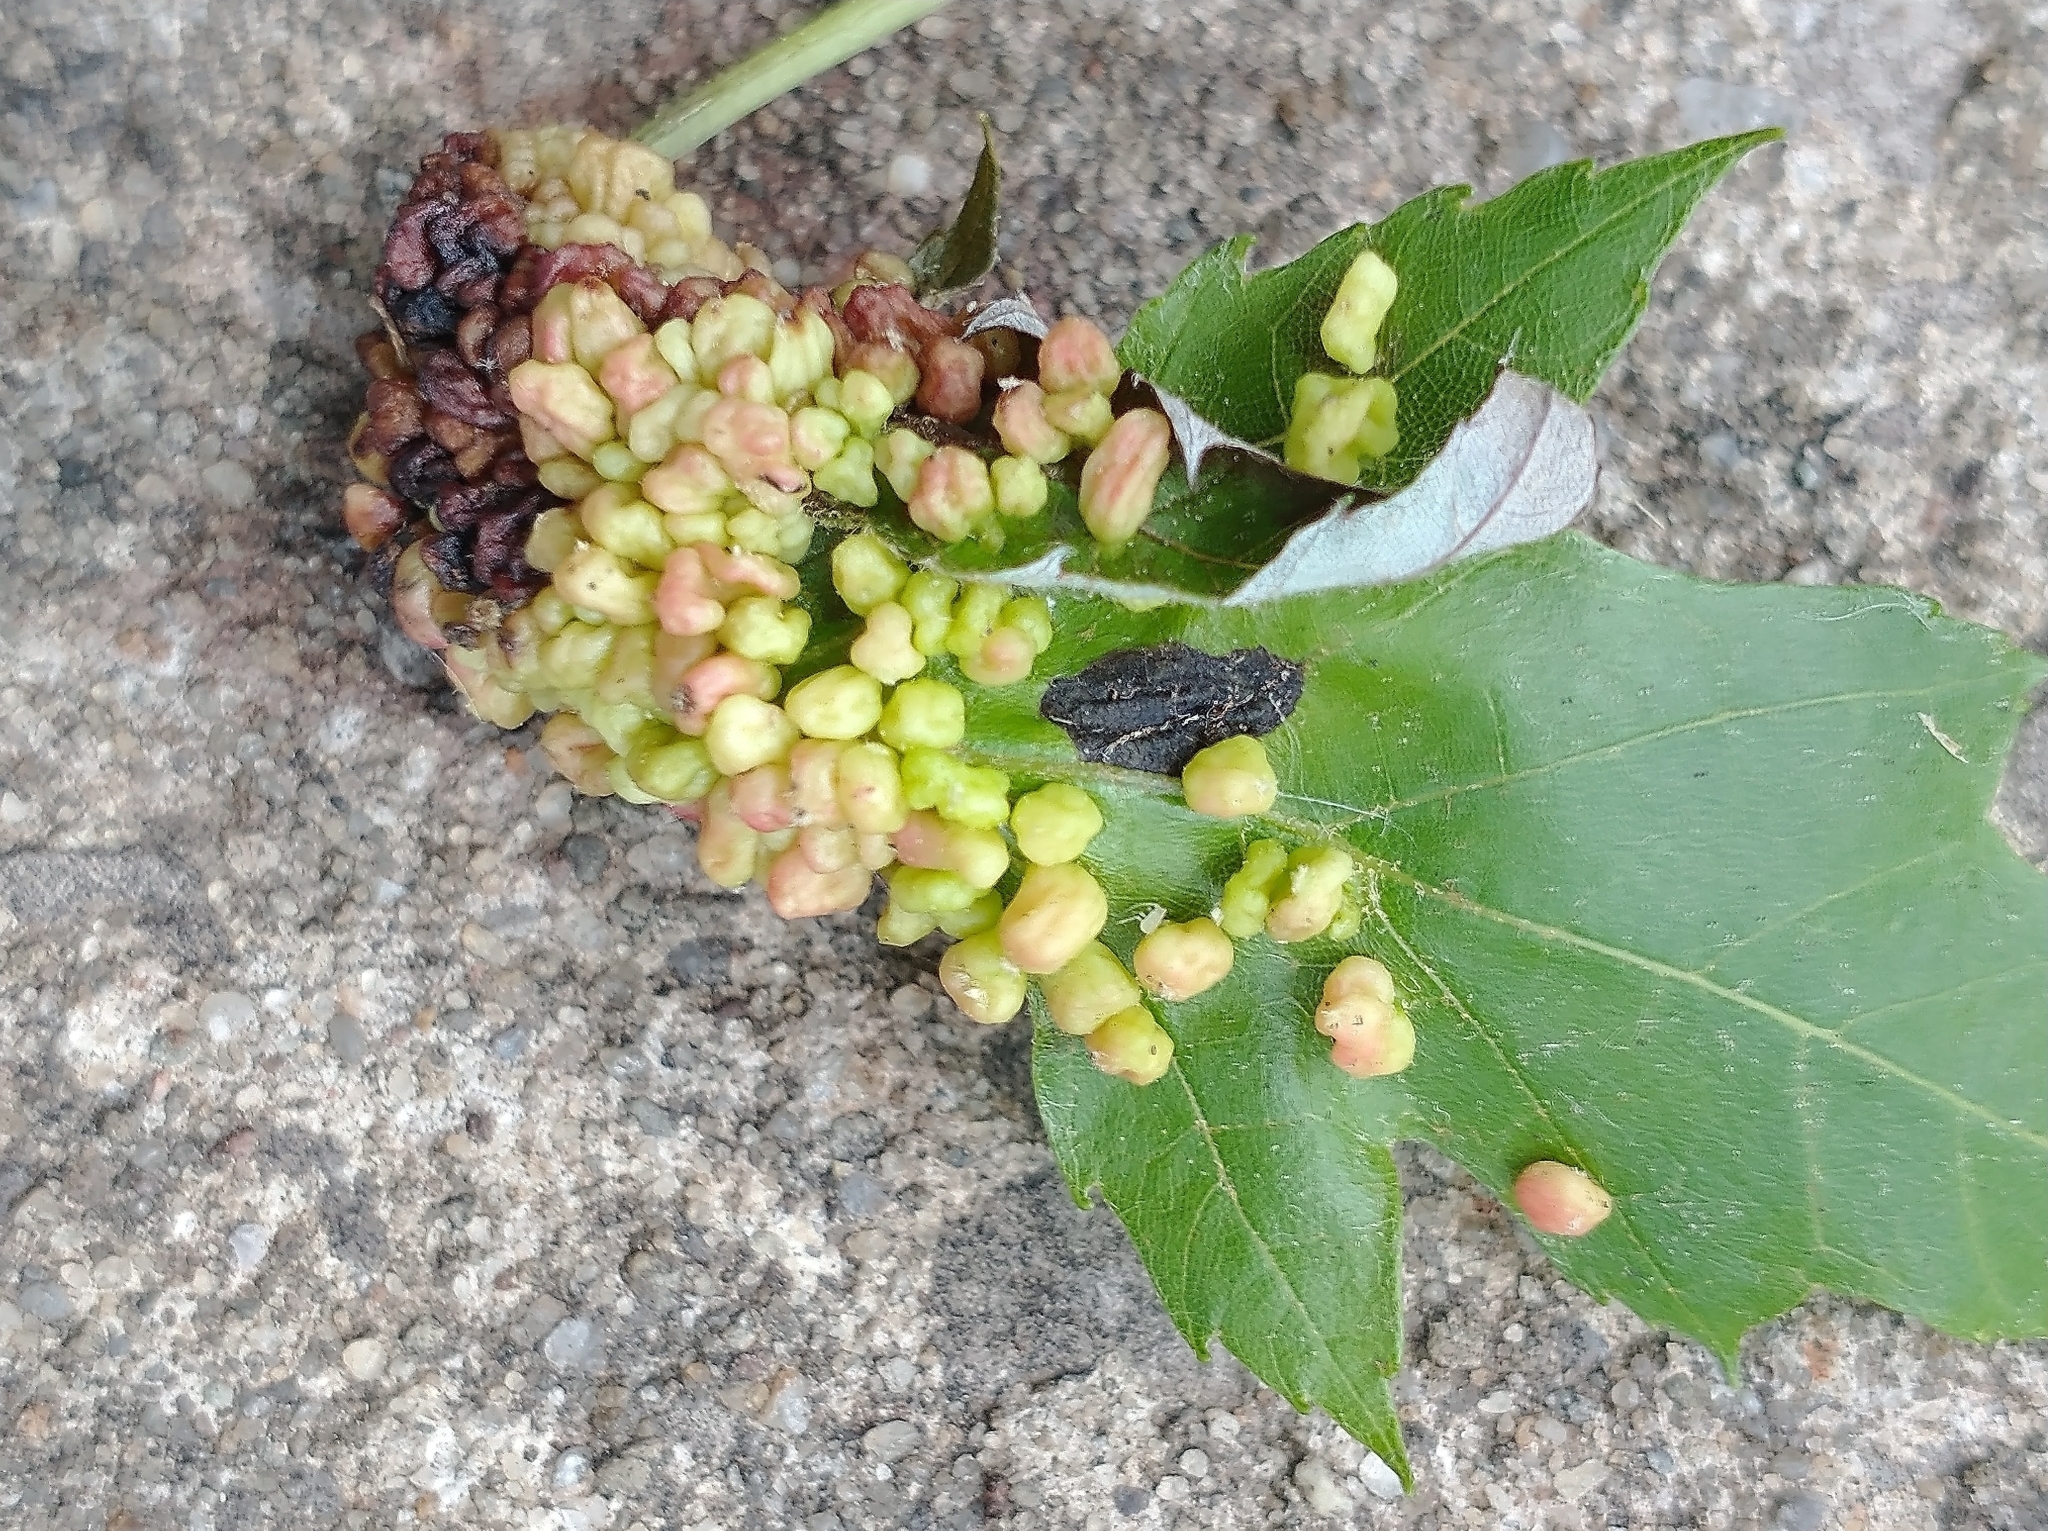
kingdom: Animalia
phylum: Arthropoda
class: Arachnida
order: Trombidiformes
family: Eriophyidae
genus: Vasates
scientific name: Vasates quadripedes
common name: Maple bladder gall mite
